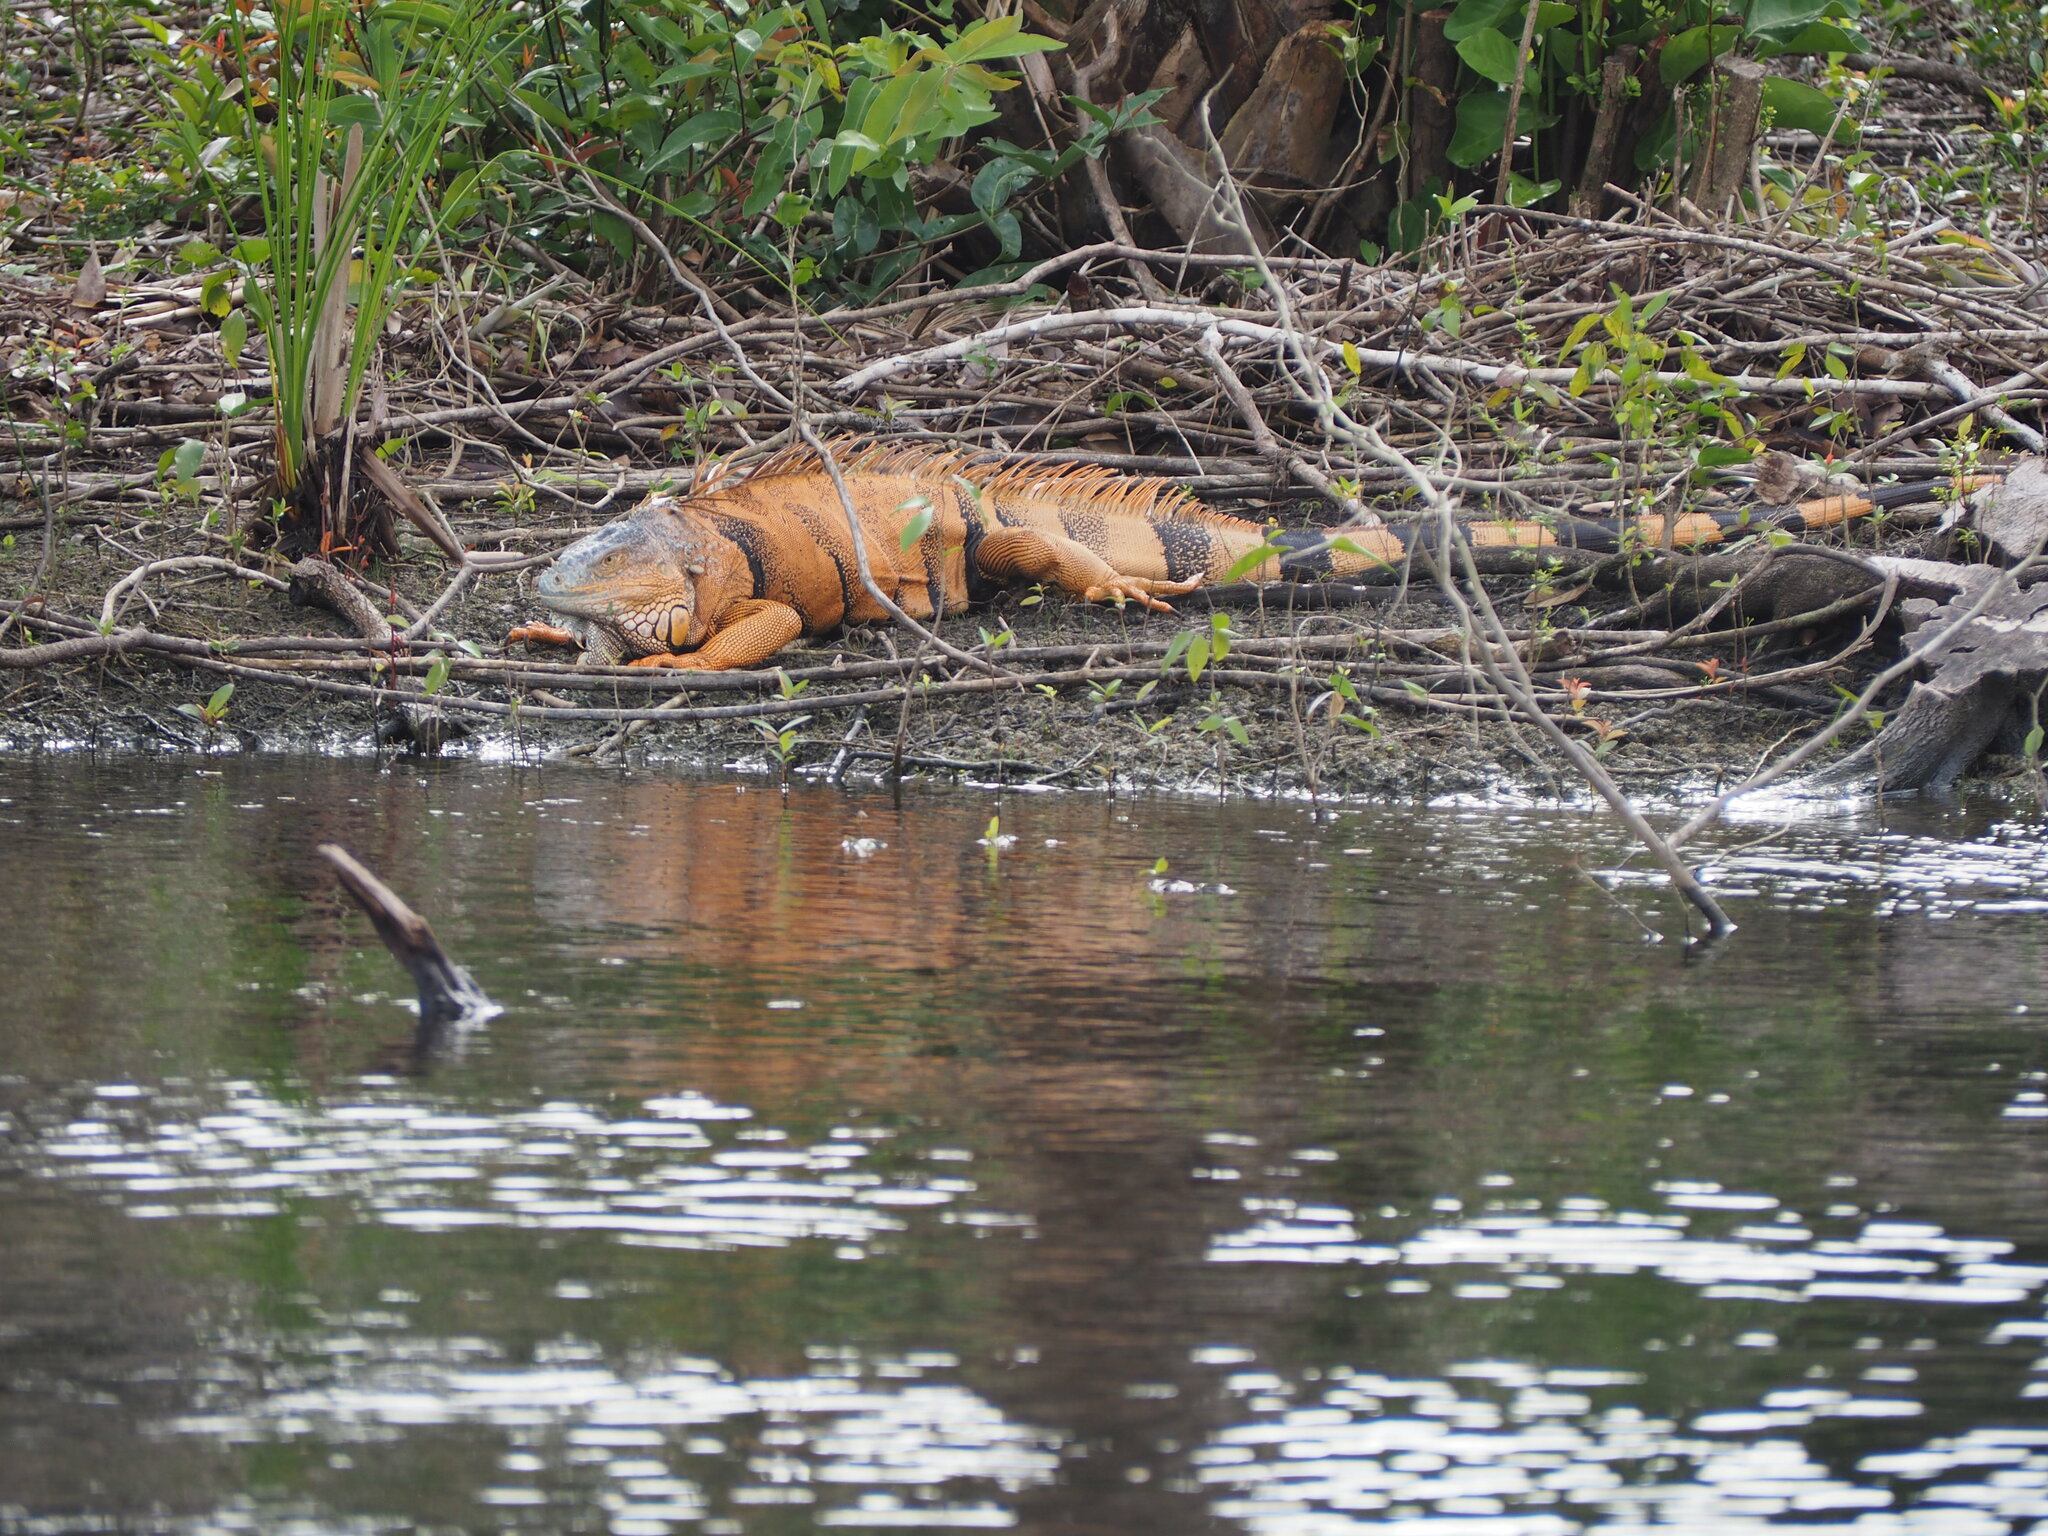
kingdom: Animalia
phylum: Chordata
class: Squamata
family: Iguanidae
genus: Iguana
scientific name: Iguana iguana
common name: Green iguana
